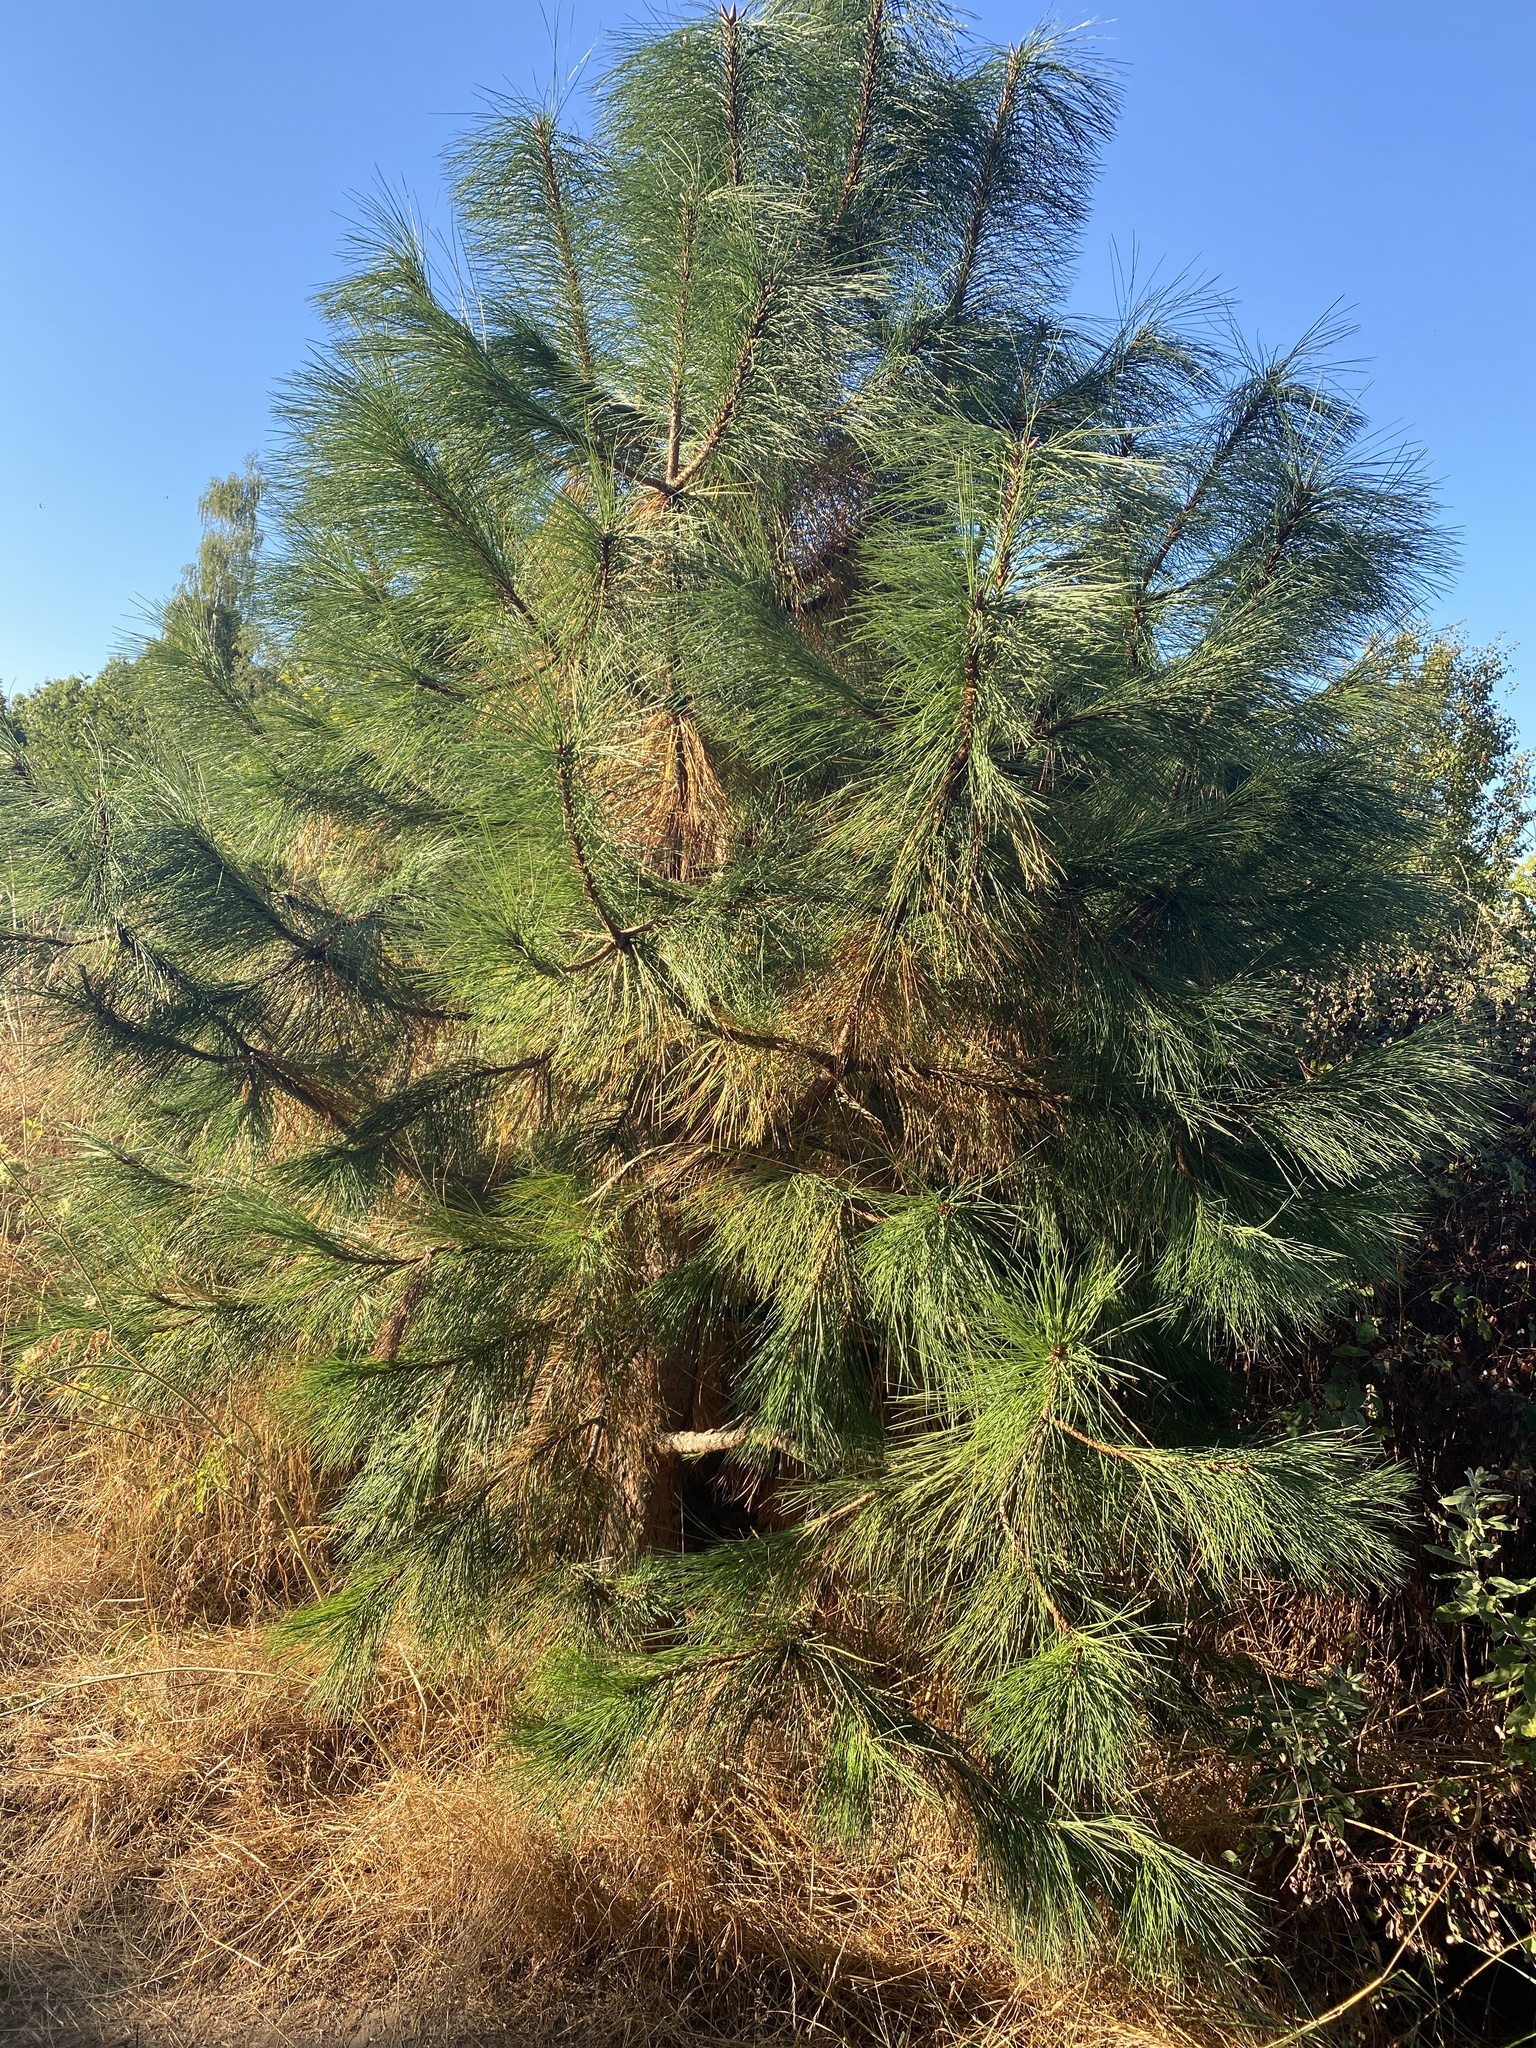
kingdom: Plantae
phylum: Tracheophyta
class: Pinopsida
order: Pinales
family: Pinaceae
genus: Pinus
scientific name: Pinus ponderosa
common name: Western yellow-pine
